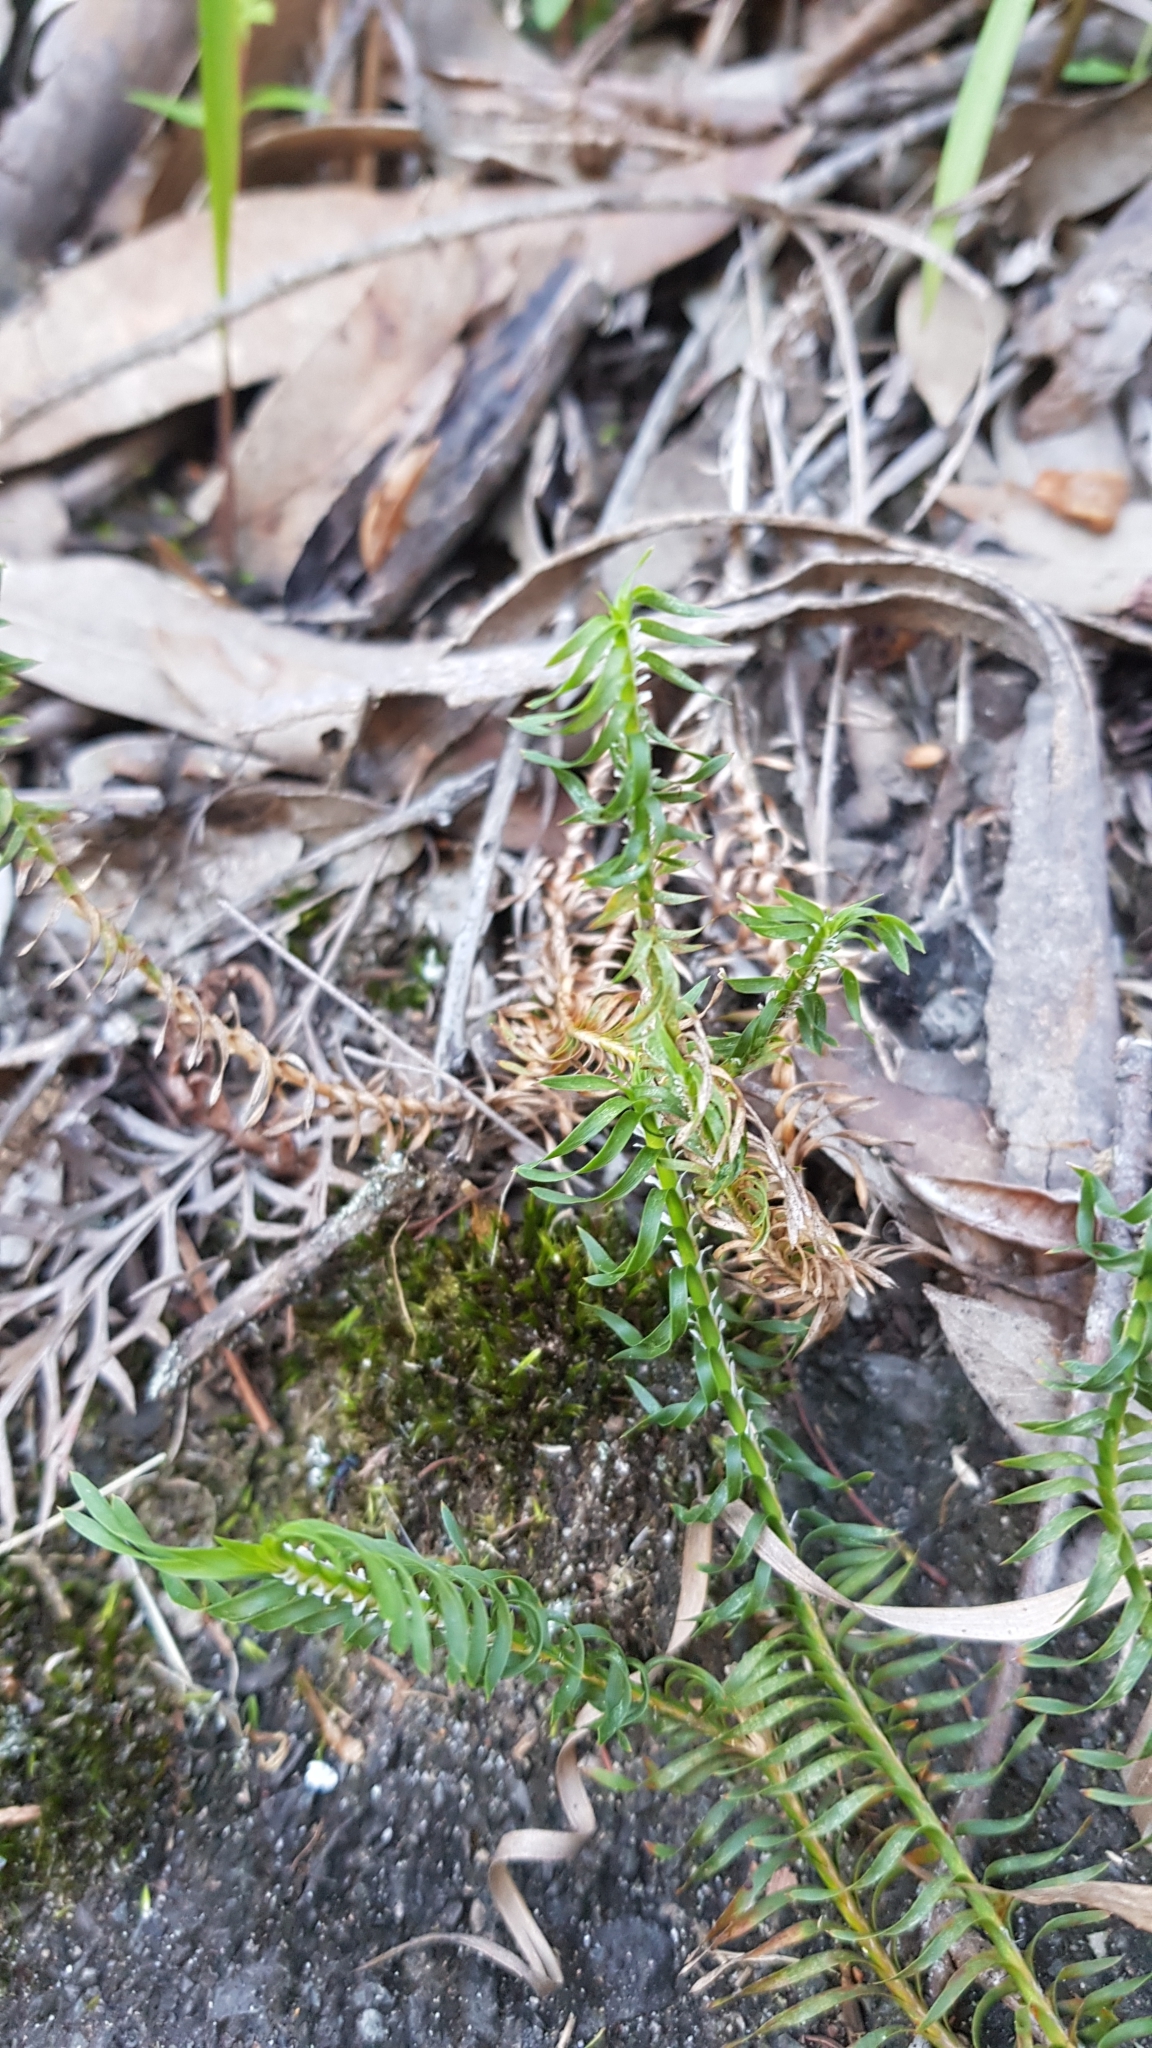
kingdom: Plantae
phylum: Tracheophyta
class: Liliopsida
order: Asparagales
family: Asparagaceae
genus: Lomandra
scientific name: Lomandra obliqua
